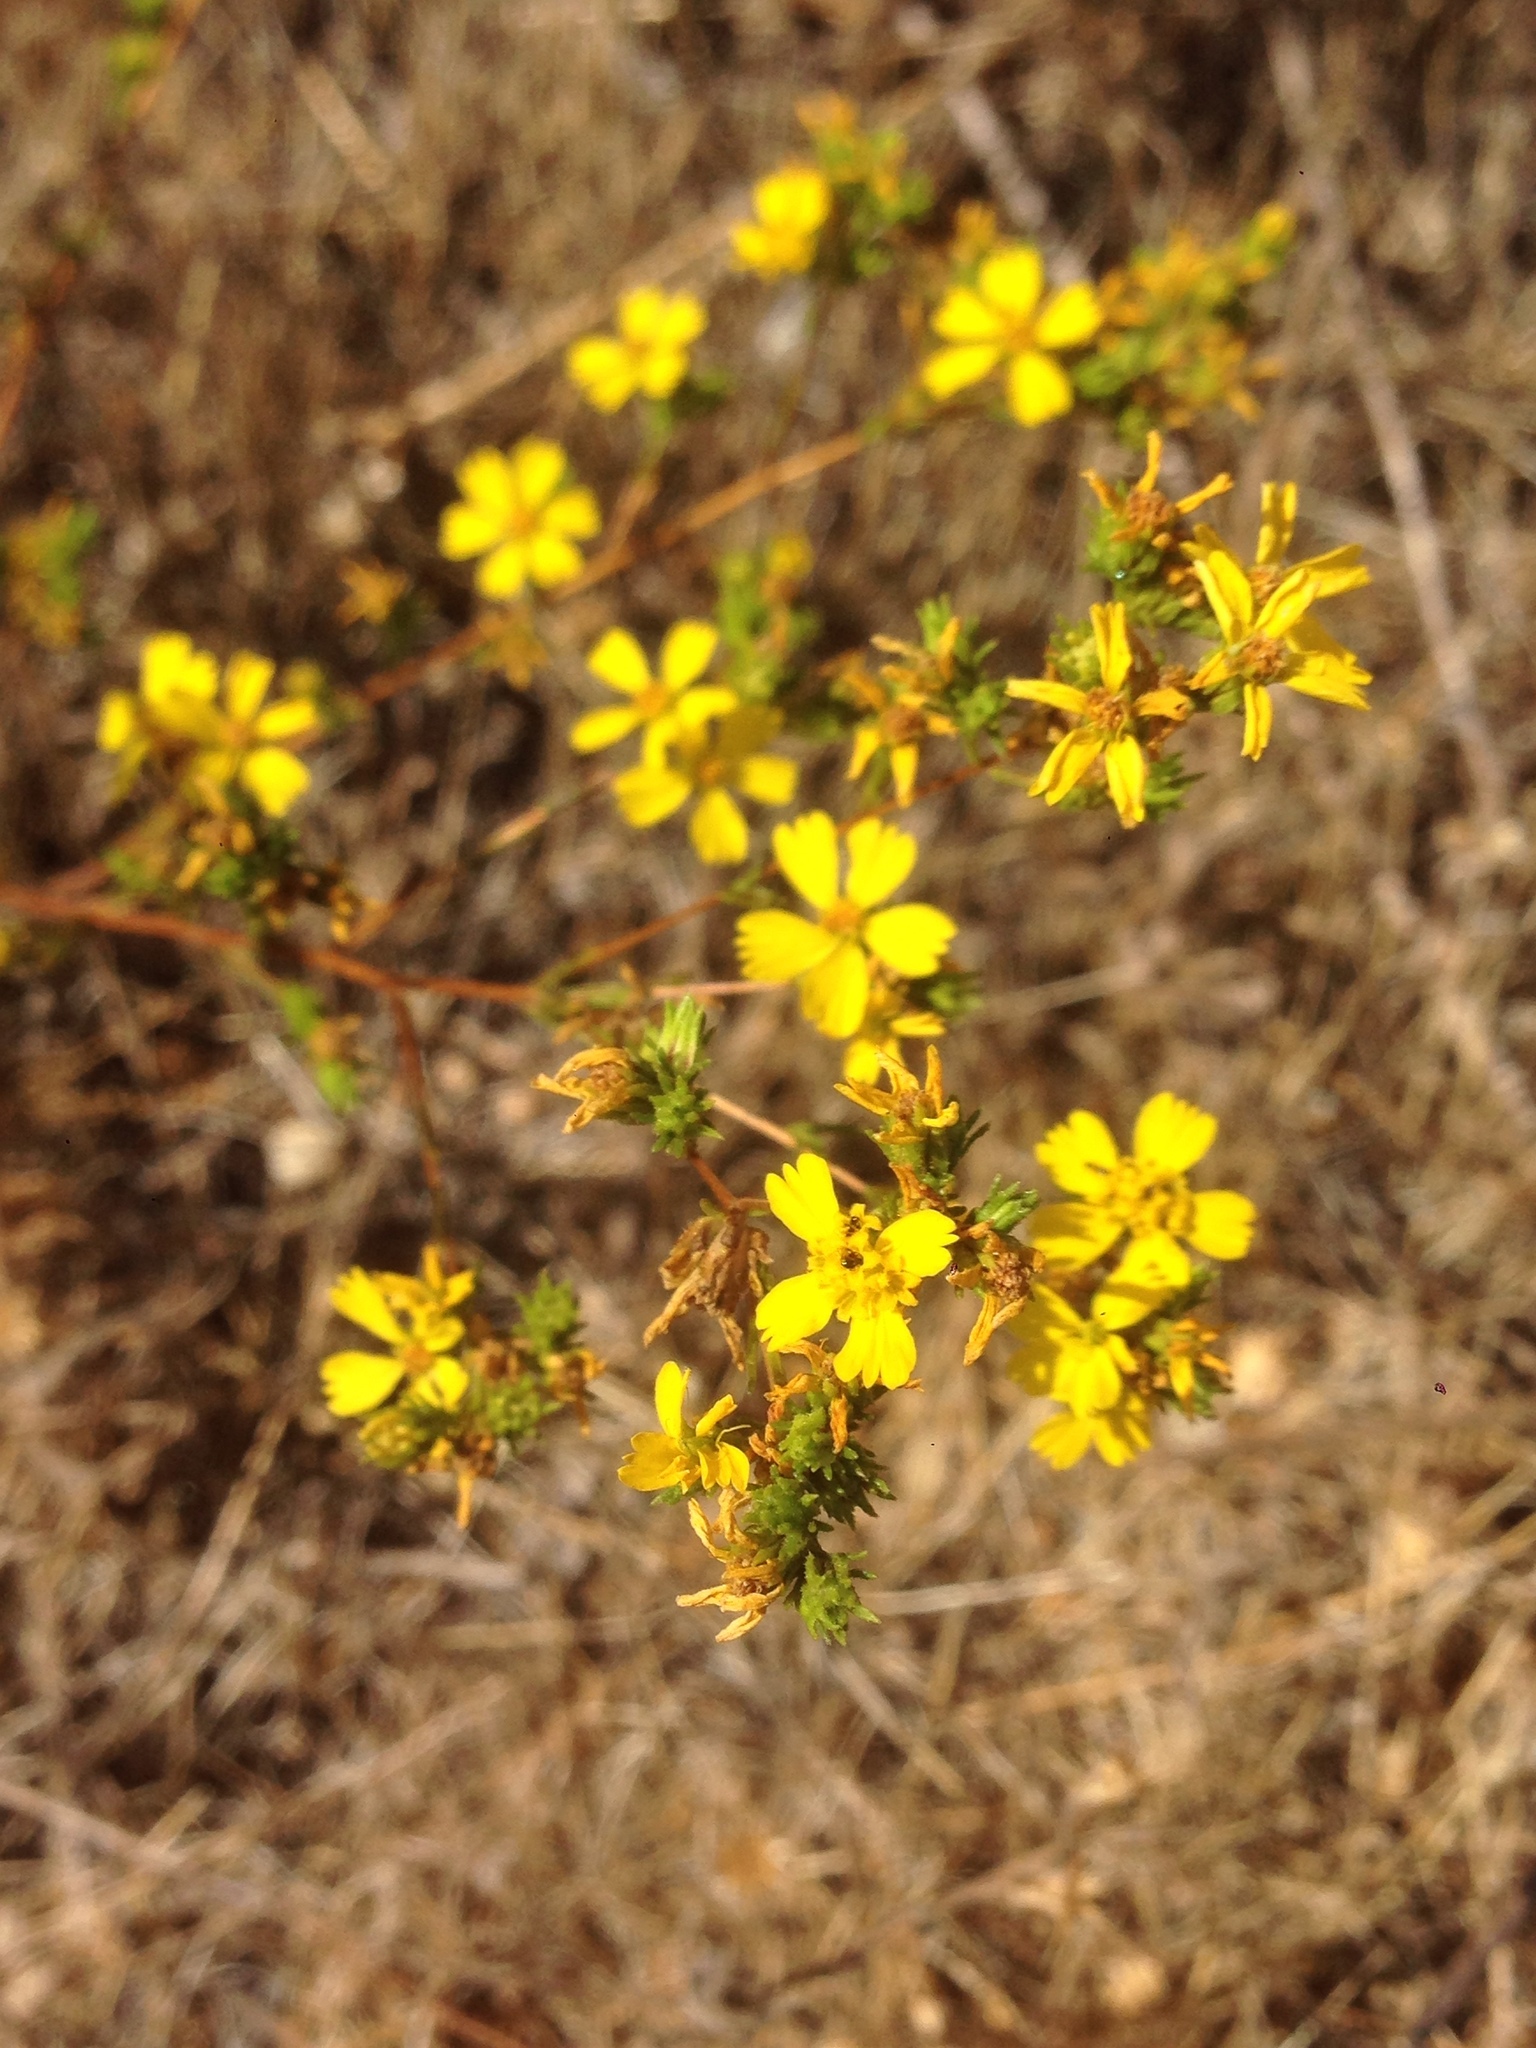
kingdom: Plantae
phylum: Tracheophyta
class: Magnoliopsida
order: Asterales
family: Asteraceae
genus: Deinandra
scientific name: Deinandra fasciculata
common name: Clustered tarweed
